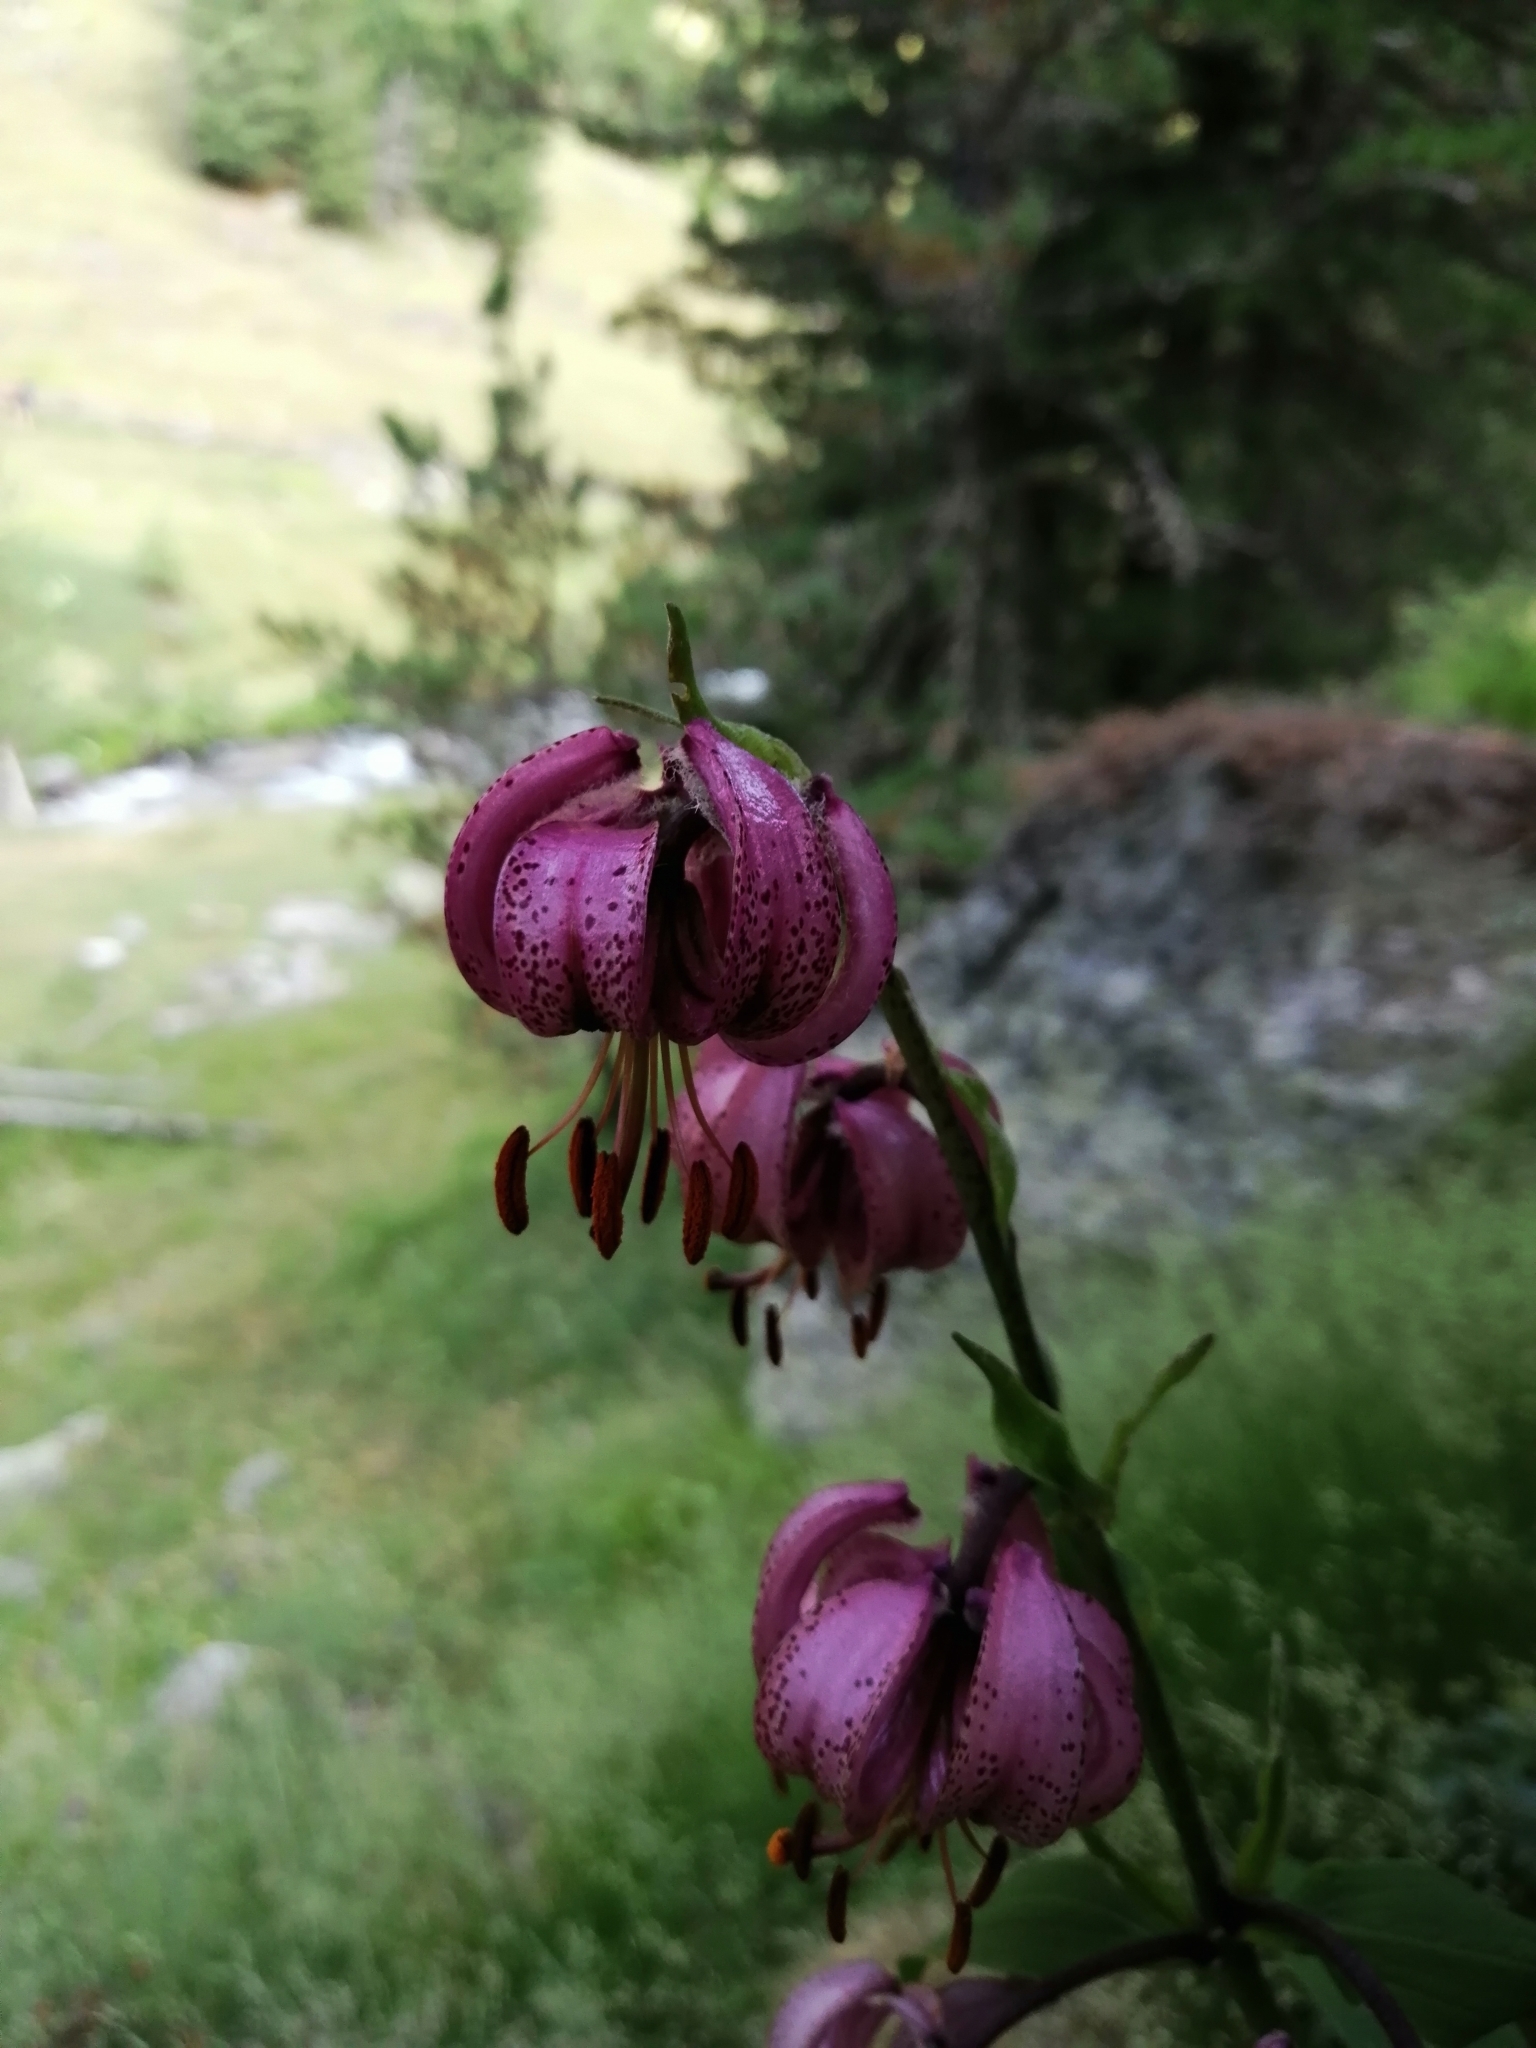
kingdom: Plantae
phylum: Tracheophyta
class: Liliopsida
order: Liliales
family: Liliaceae
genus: Lilium
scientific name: Lilium martagon
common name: Martagon lily
